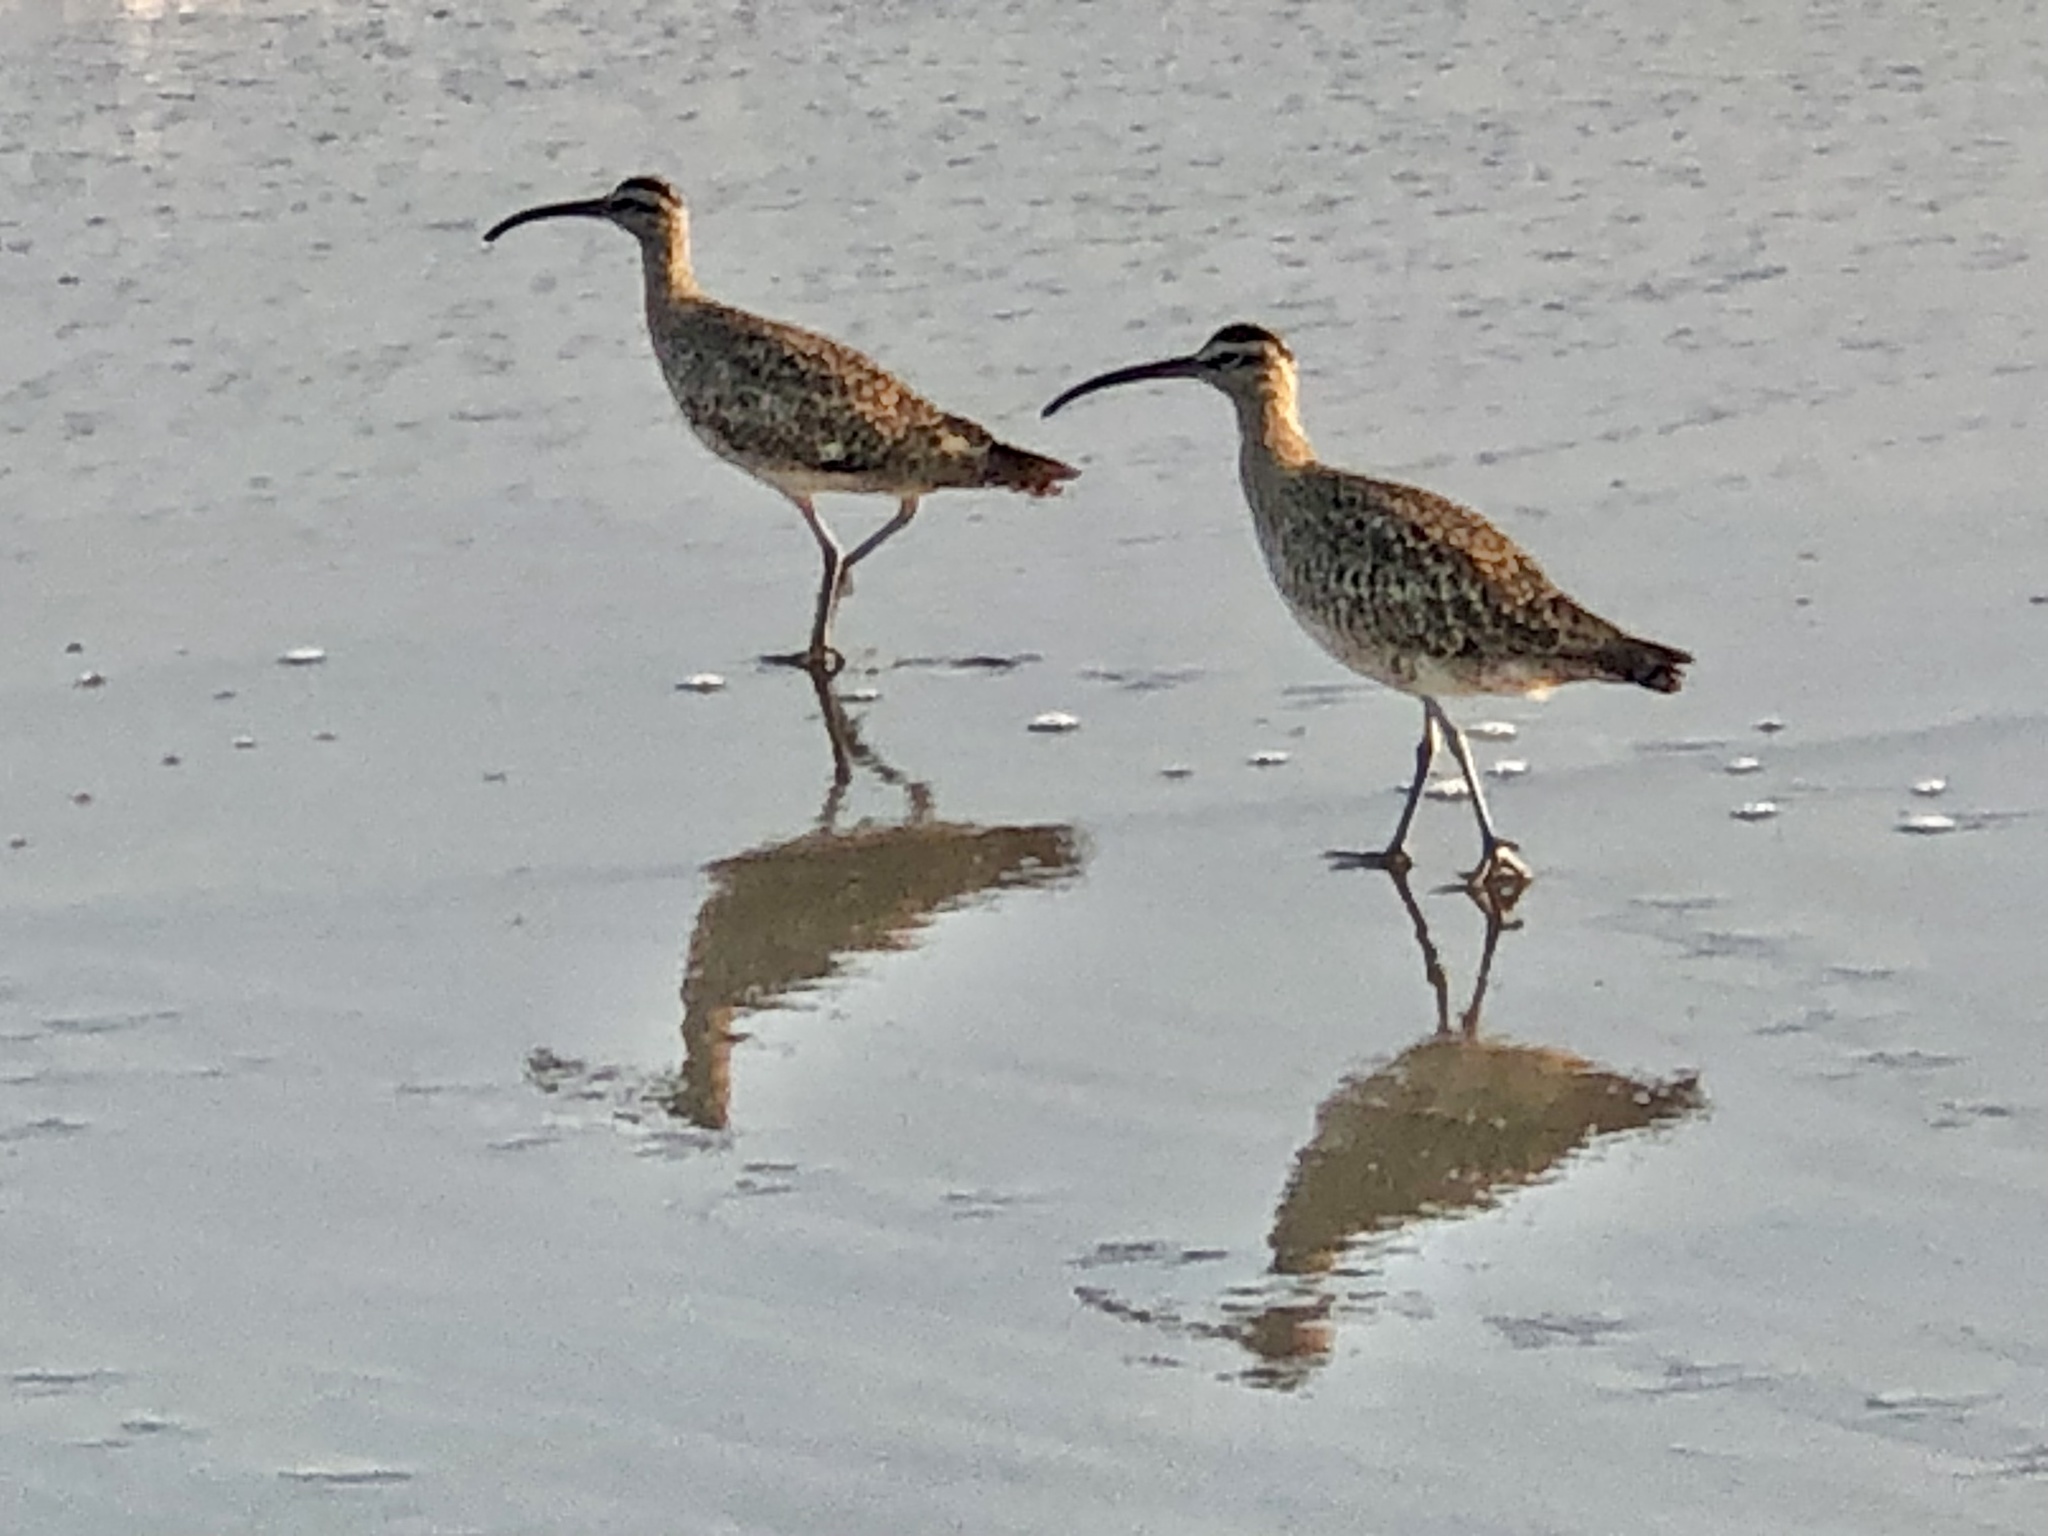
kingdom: Animalia
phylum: Chordata
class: Aves
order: Charadriiformes
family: Scolopacidae
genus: Numenius
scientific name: Numenius phaeopus
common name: Whimbrel
